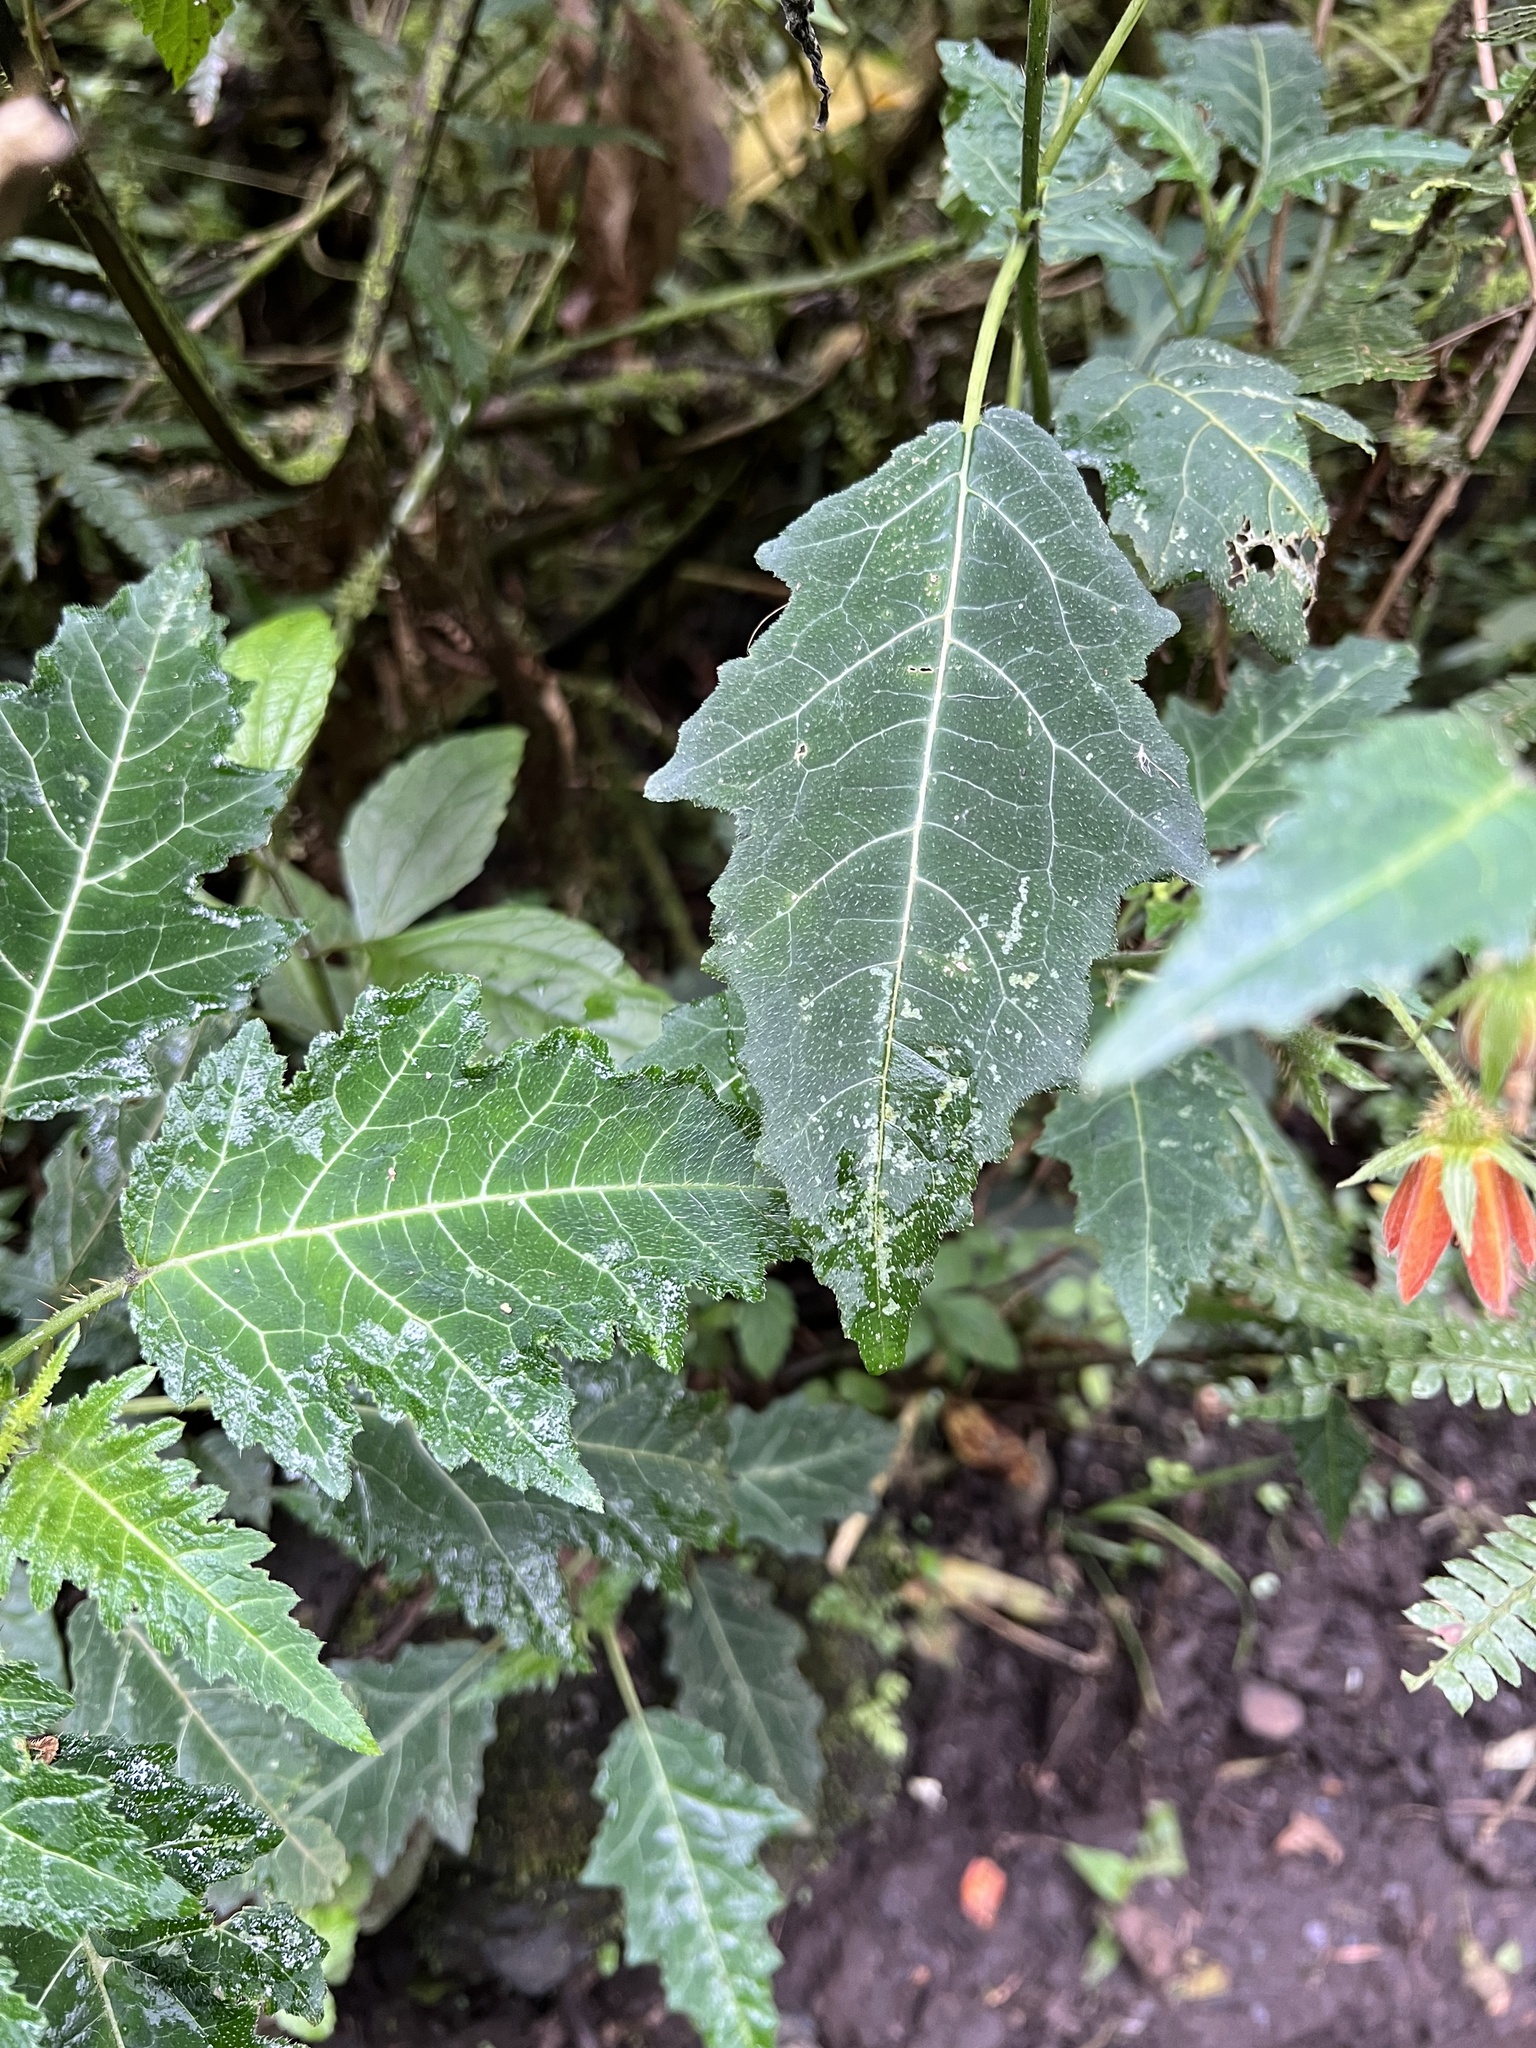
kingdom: Plantae
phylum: Tracheophyta
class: Magnoliopsida
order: Cornales
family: Loasaceae
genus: Nasa
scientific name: Nasa campaniflora
